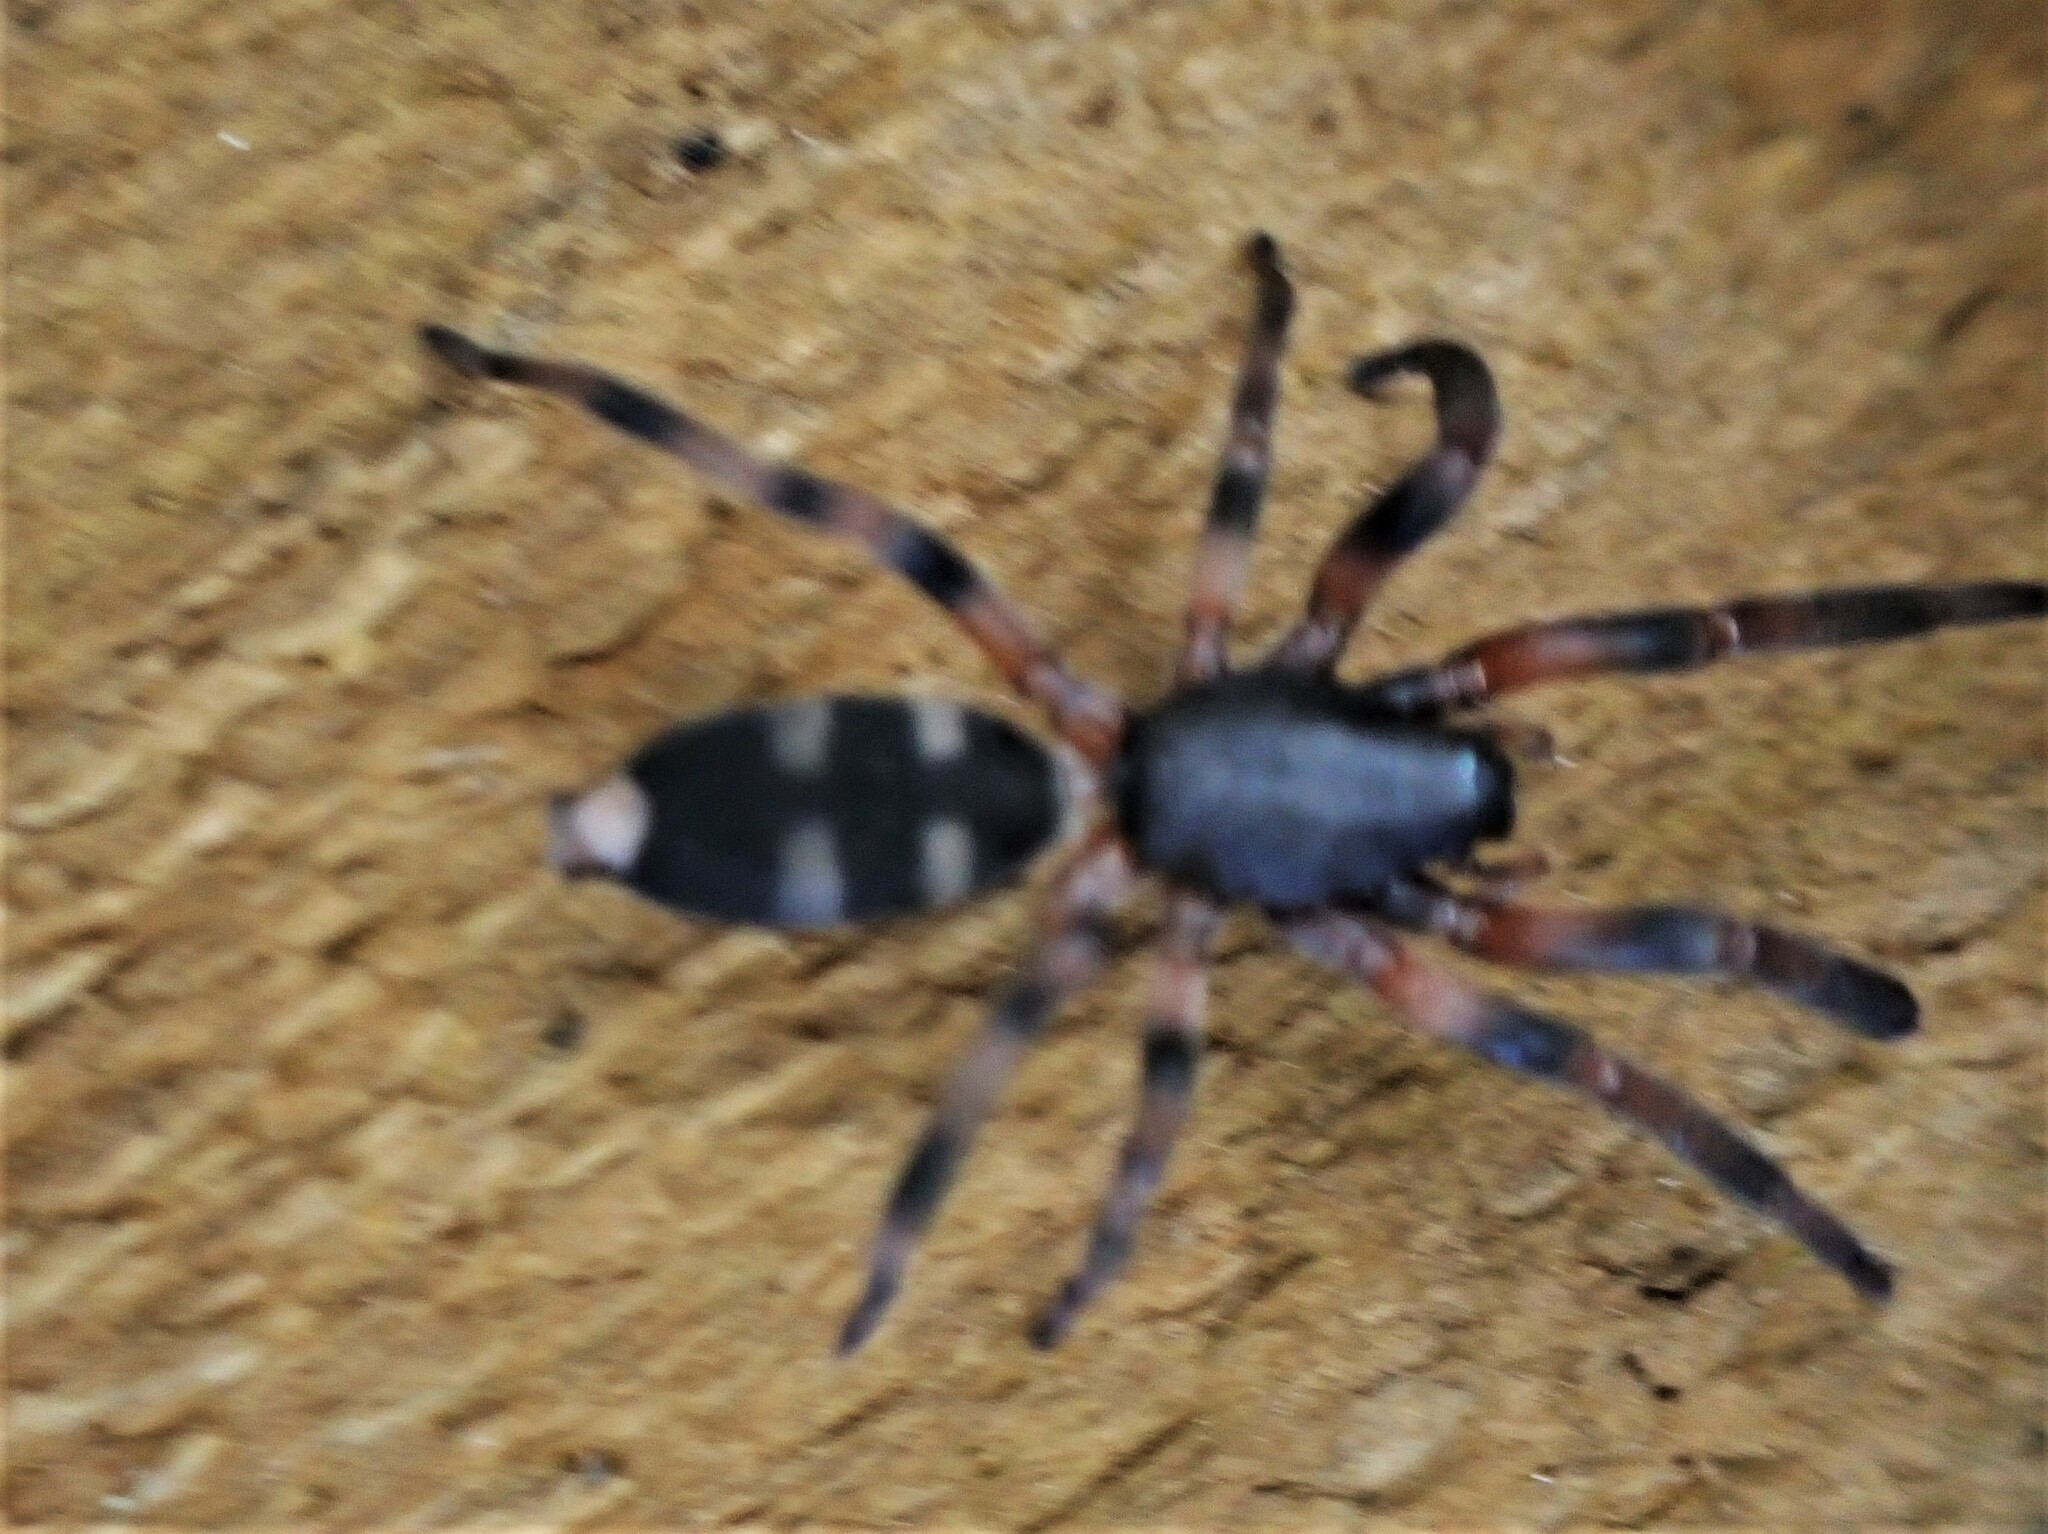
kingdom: Animalia
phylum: Arthropoda
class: Arachnida
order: Araneae
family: Lamponidae
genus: Lampona
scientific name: Lampona murina
